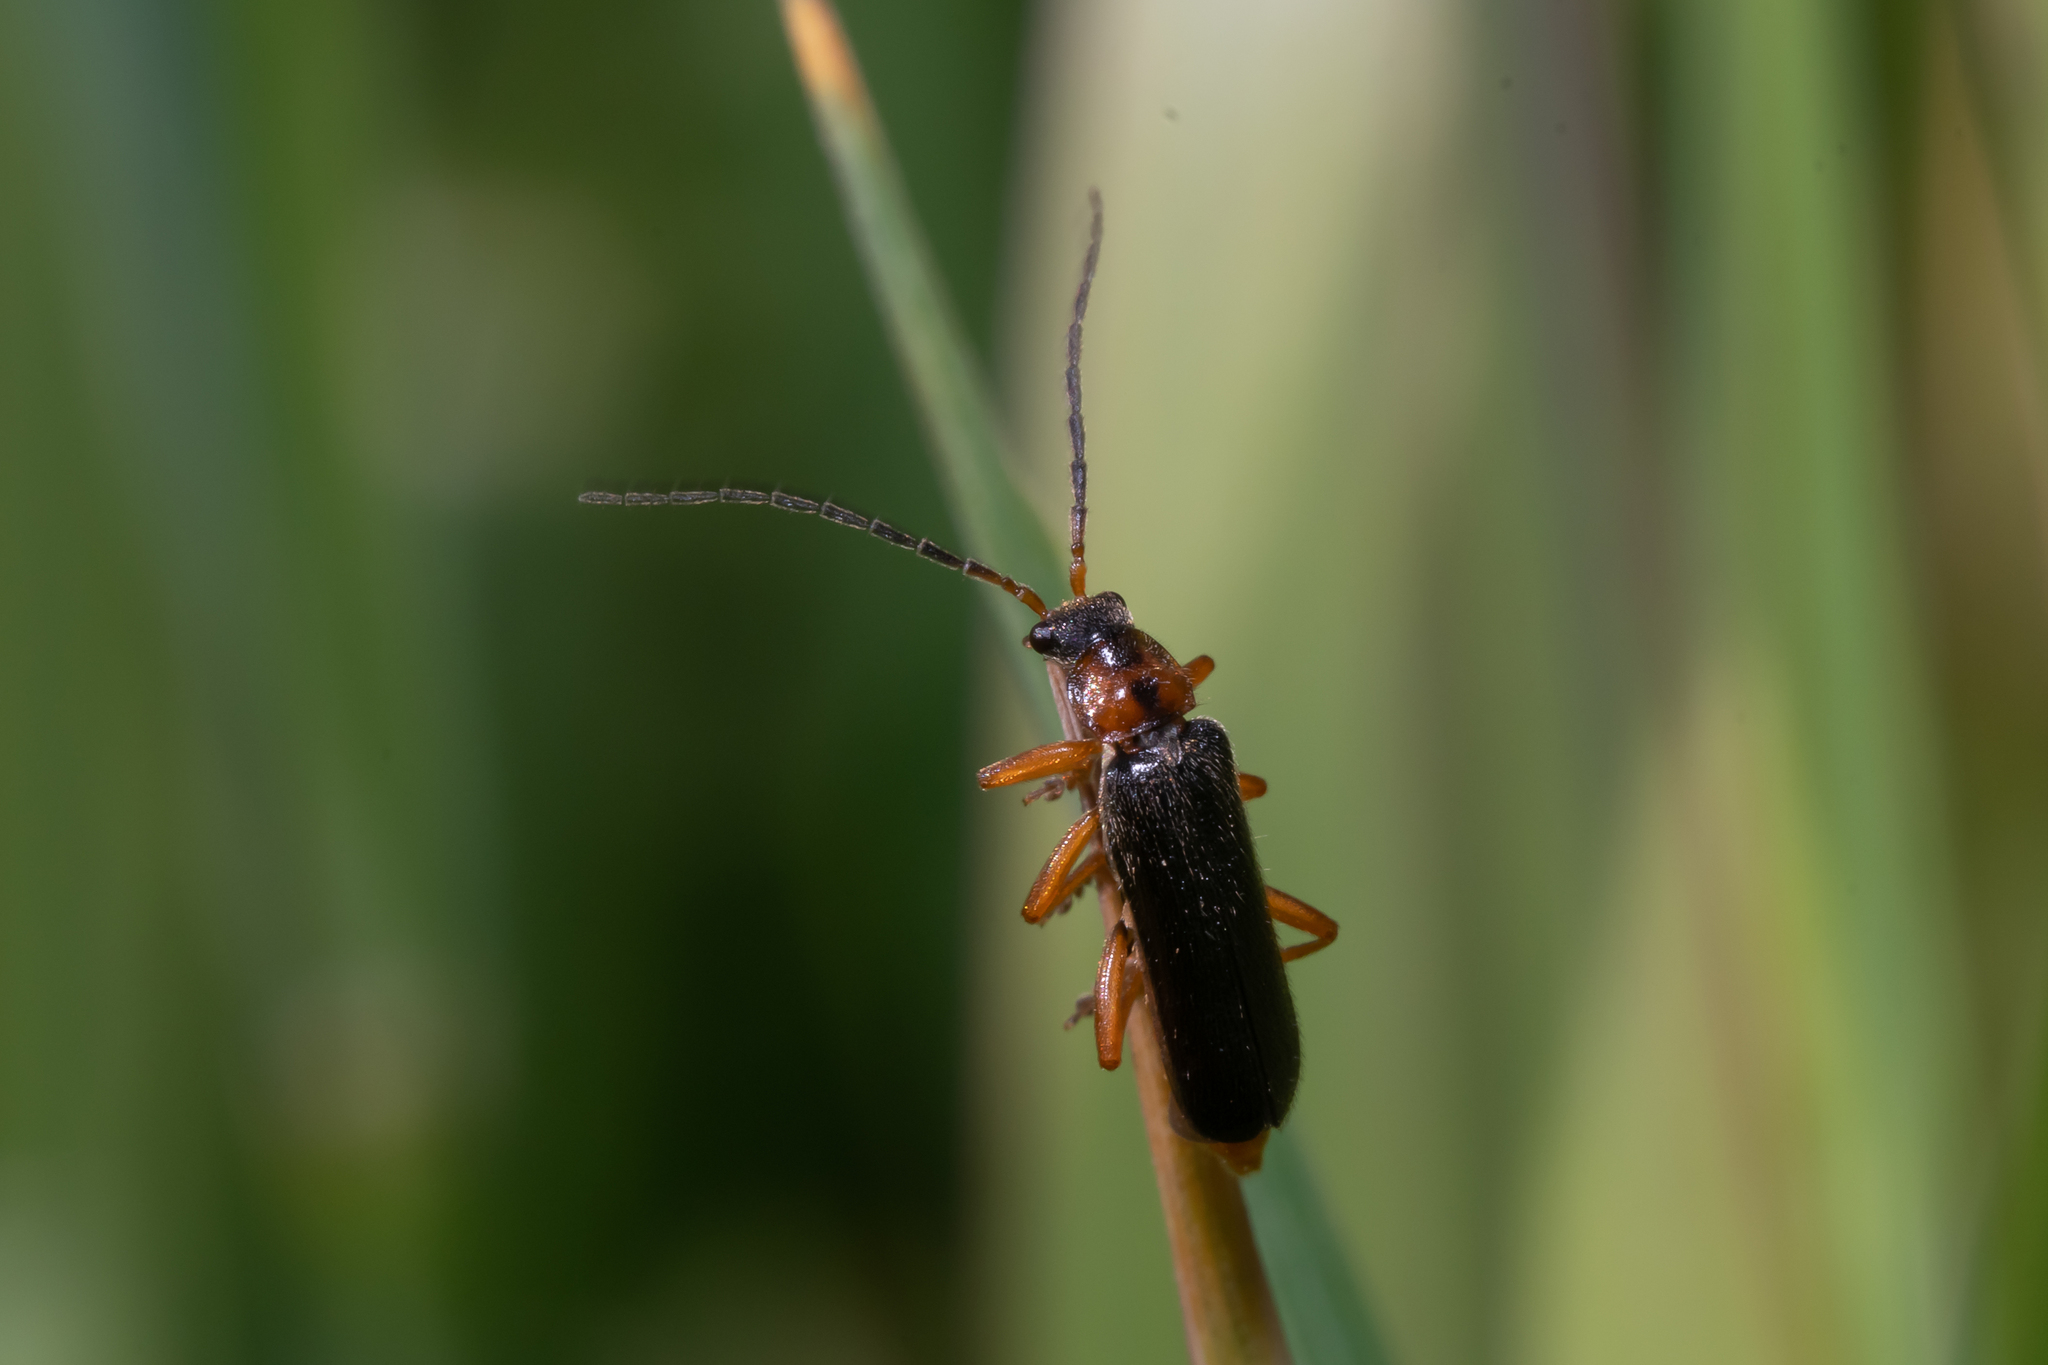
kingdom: Animalia
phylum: Arthropoda
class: Insecta
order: Coleoptera
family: Cantharidae
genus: Cantharis
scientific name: Cantharis flavilabris
